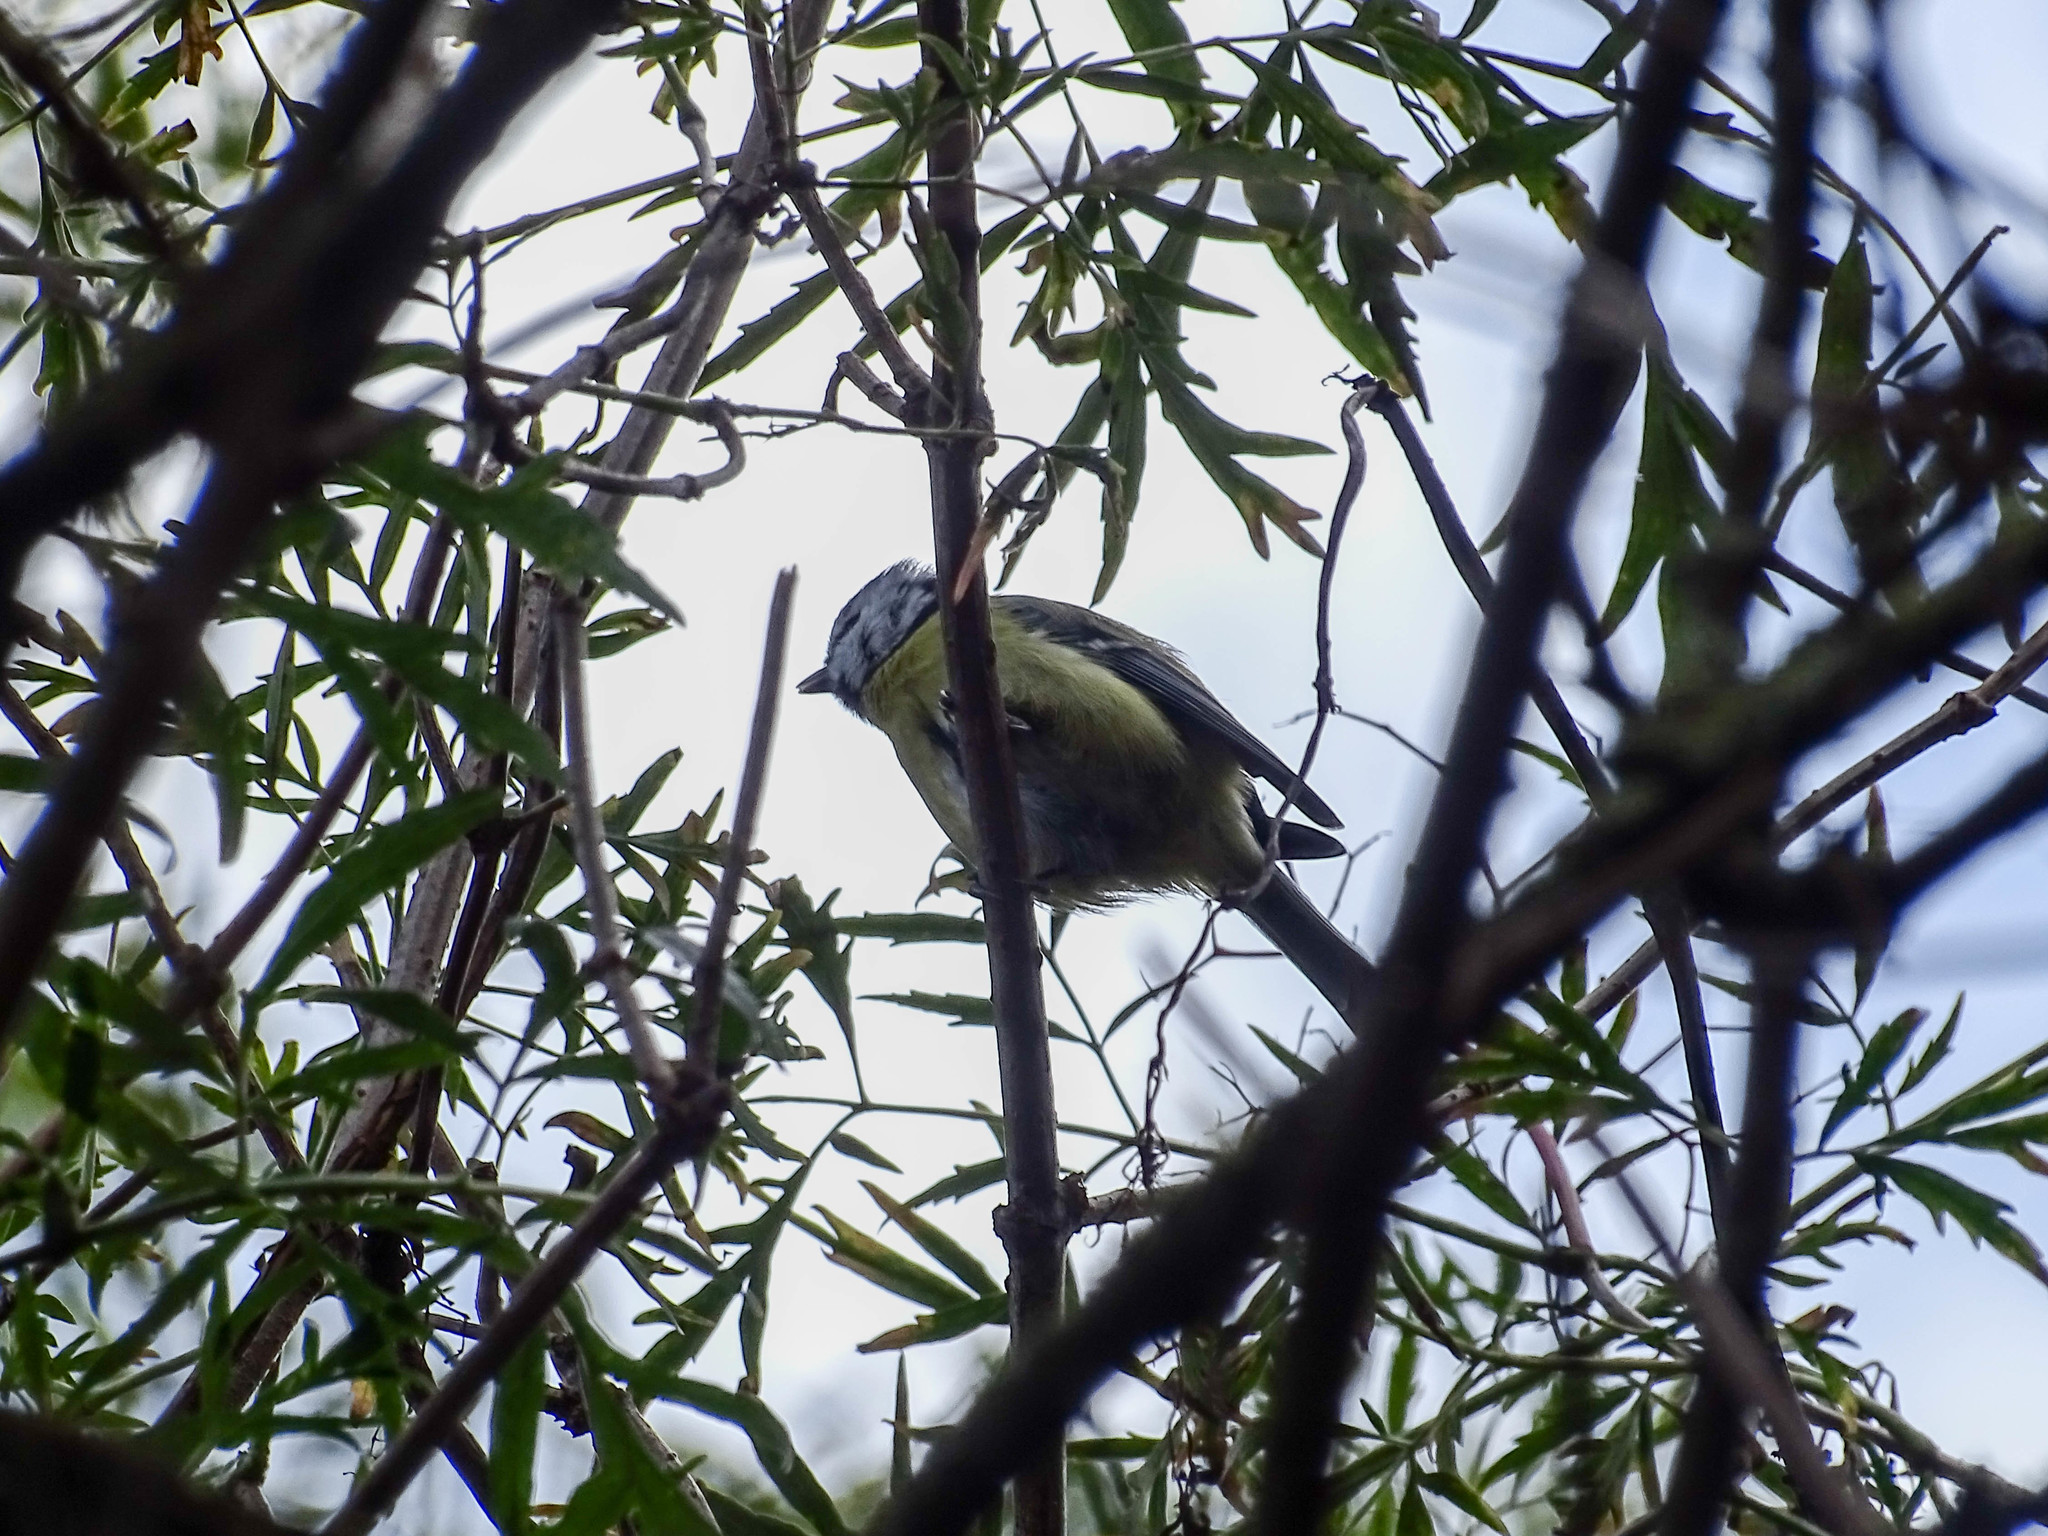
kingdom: Animalia
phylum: Chordata
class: Aves
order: Passeriformes
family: Paridae
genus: Cyanistes
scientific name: Cyanistes caeruleus
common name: Eurasian blue tit
